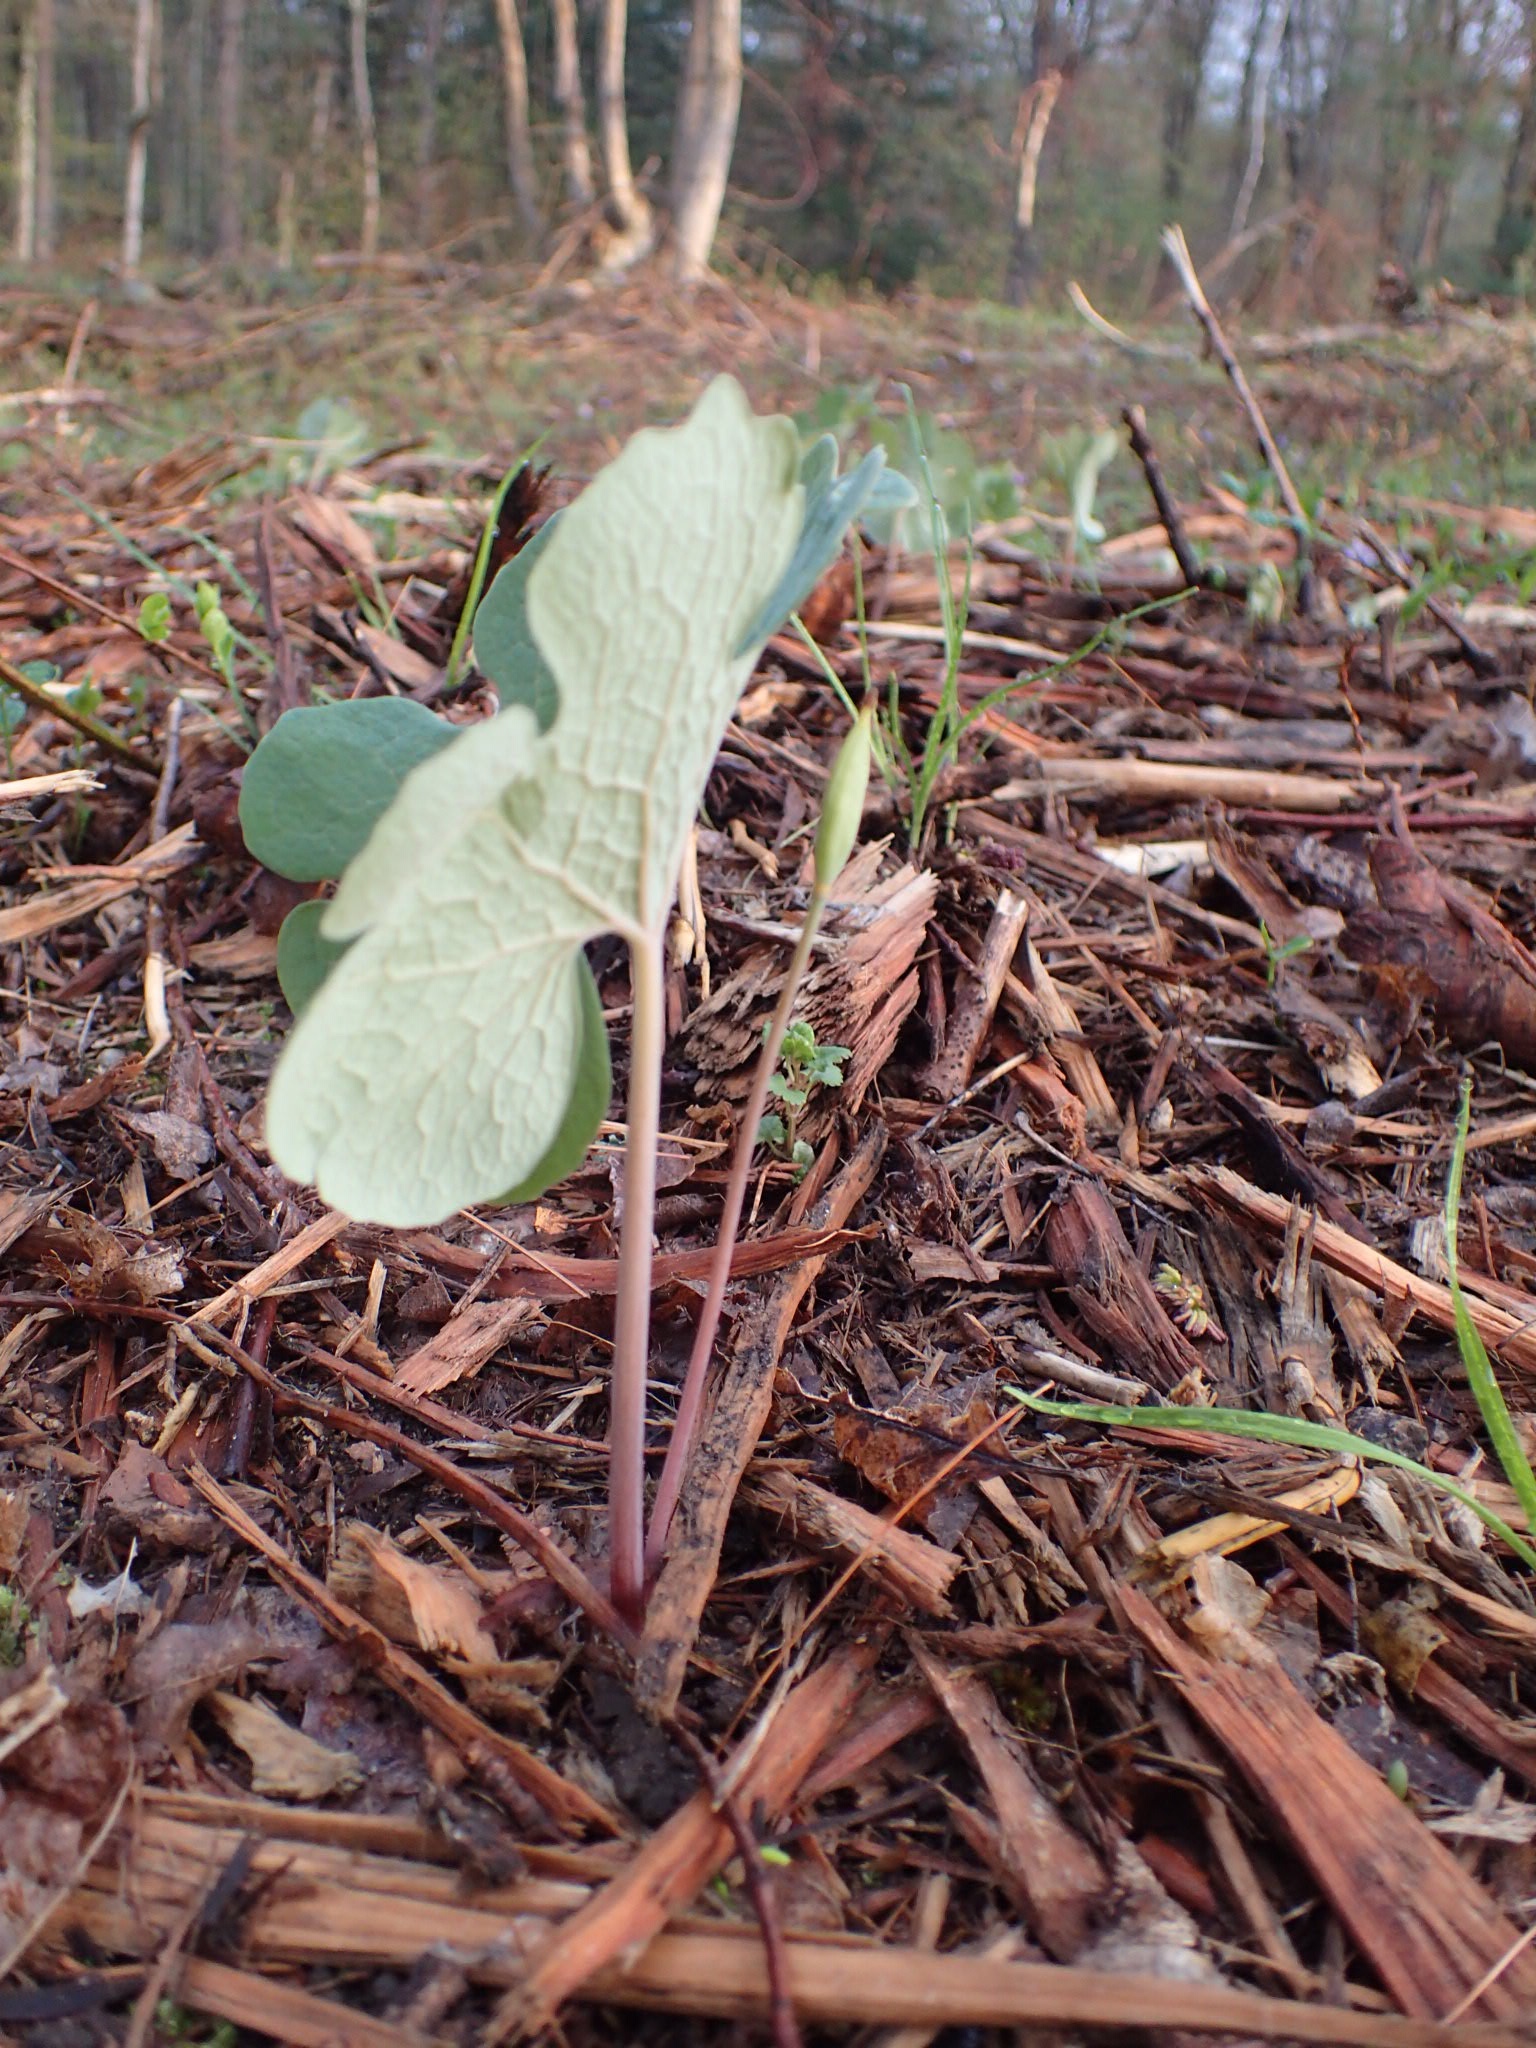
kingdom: Plantae
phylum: Tracheophyta
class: Magnoliopsida
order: Ranunculales
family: Papaveraceae
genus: Sanguinaria
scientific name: Sanguinaria canadensis
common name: Bloodroot
